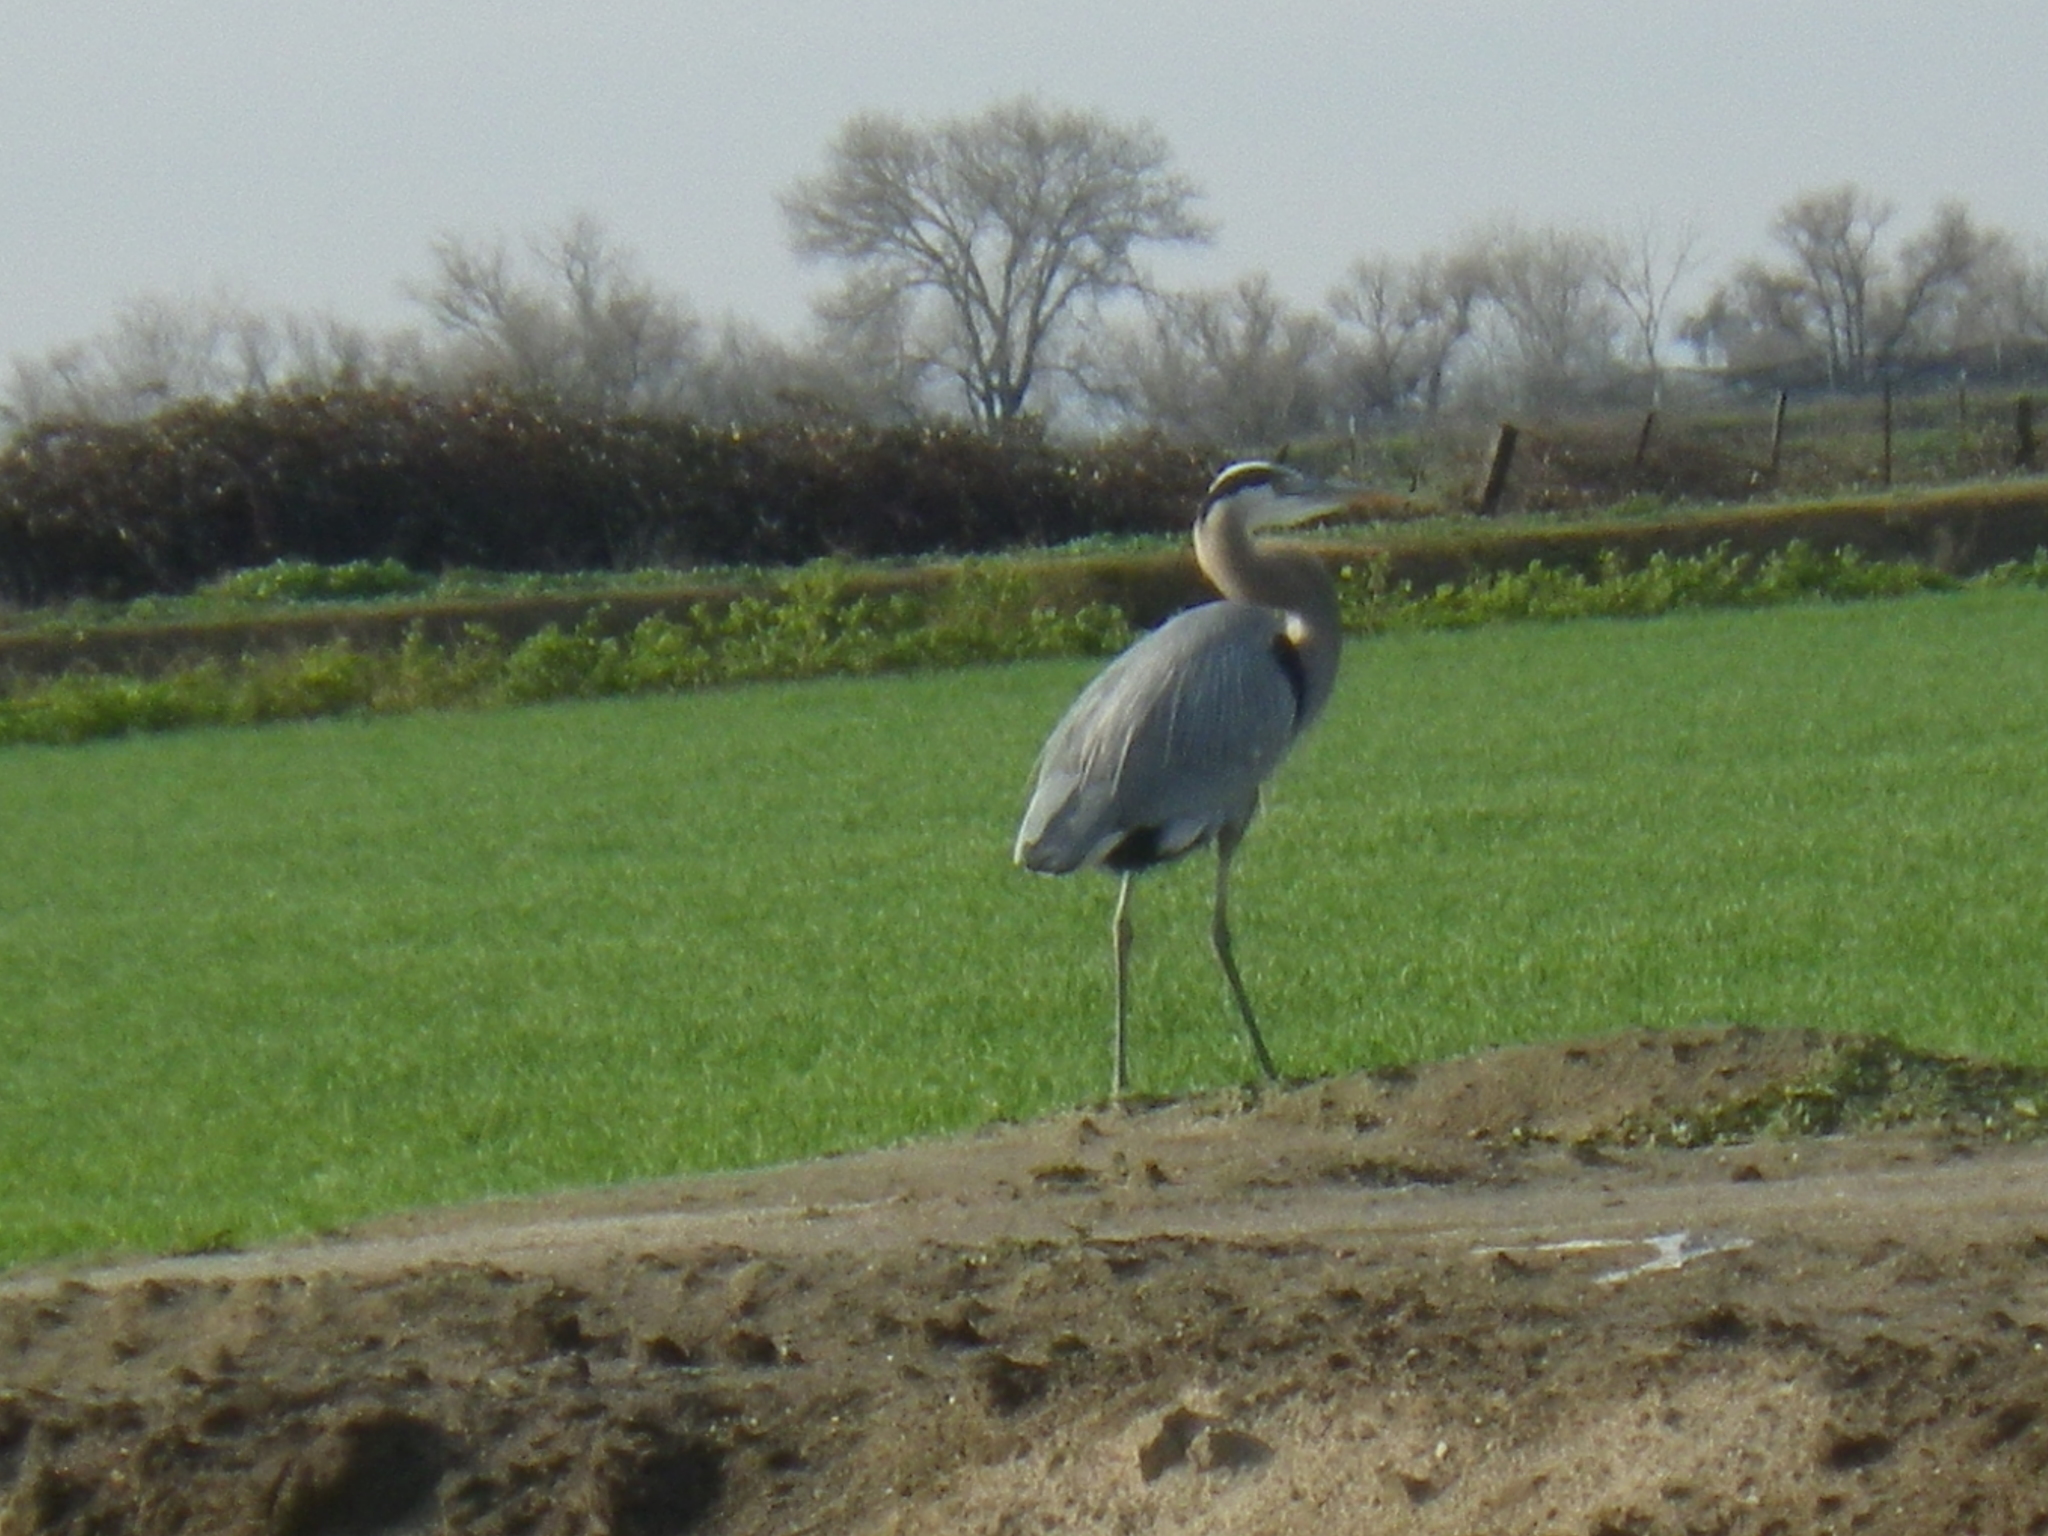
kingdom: Animalia
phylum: Chordata
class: Aves
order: Pelecaniformes
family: Ardeidae
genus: Ardea
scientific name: Ardea herodias
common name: Great blue heron
